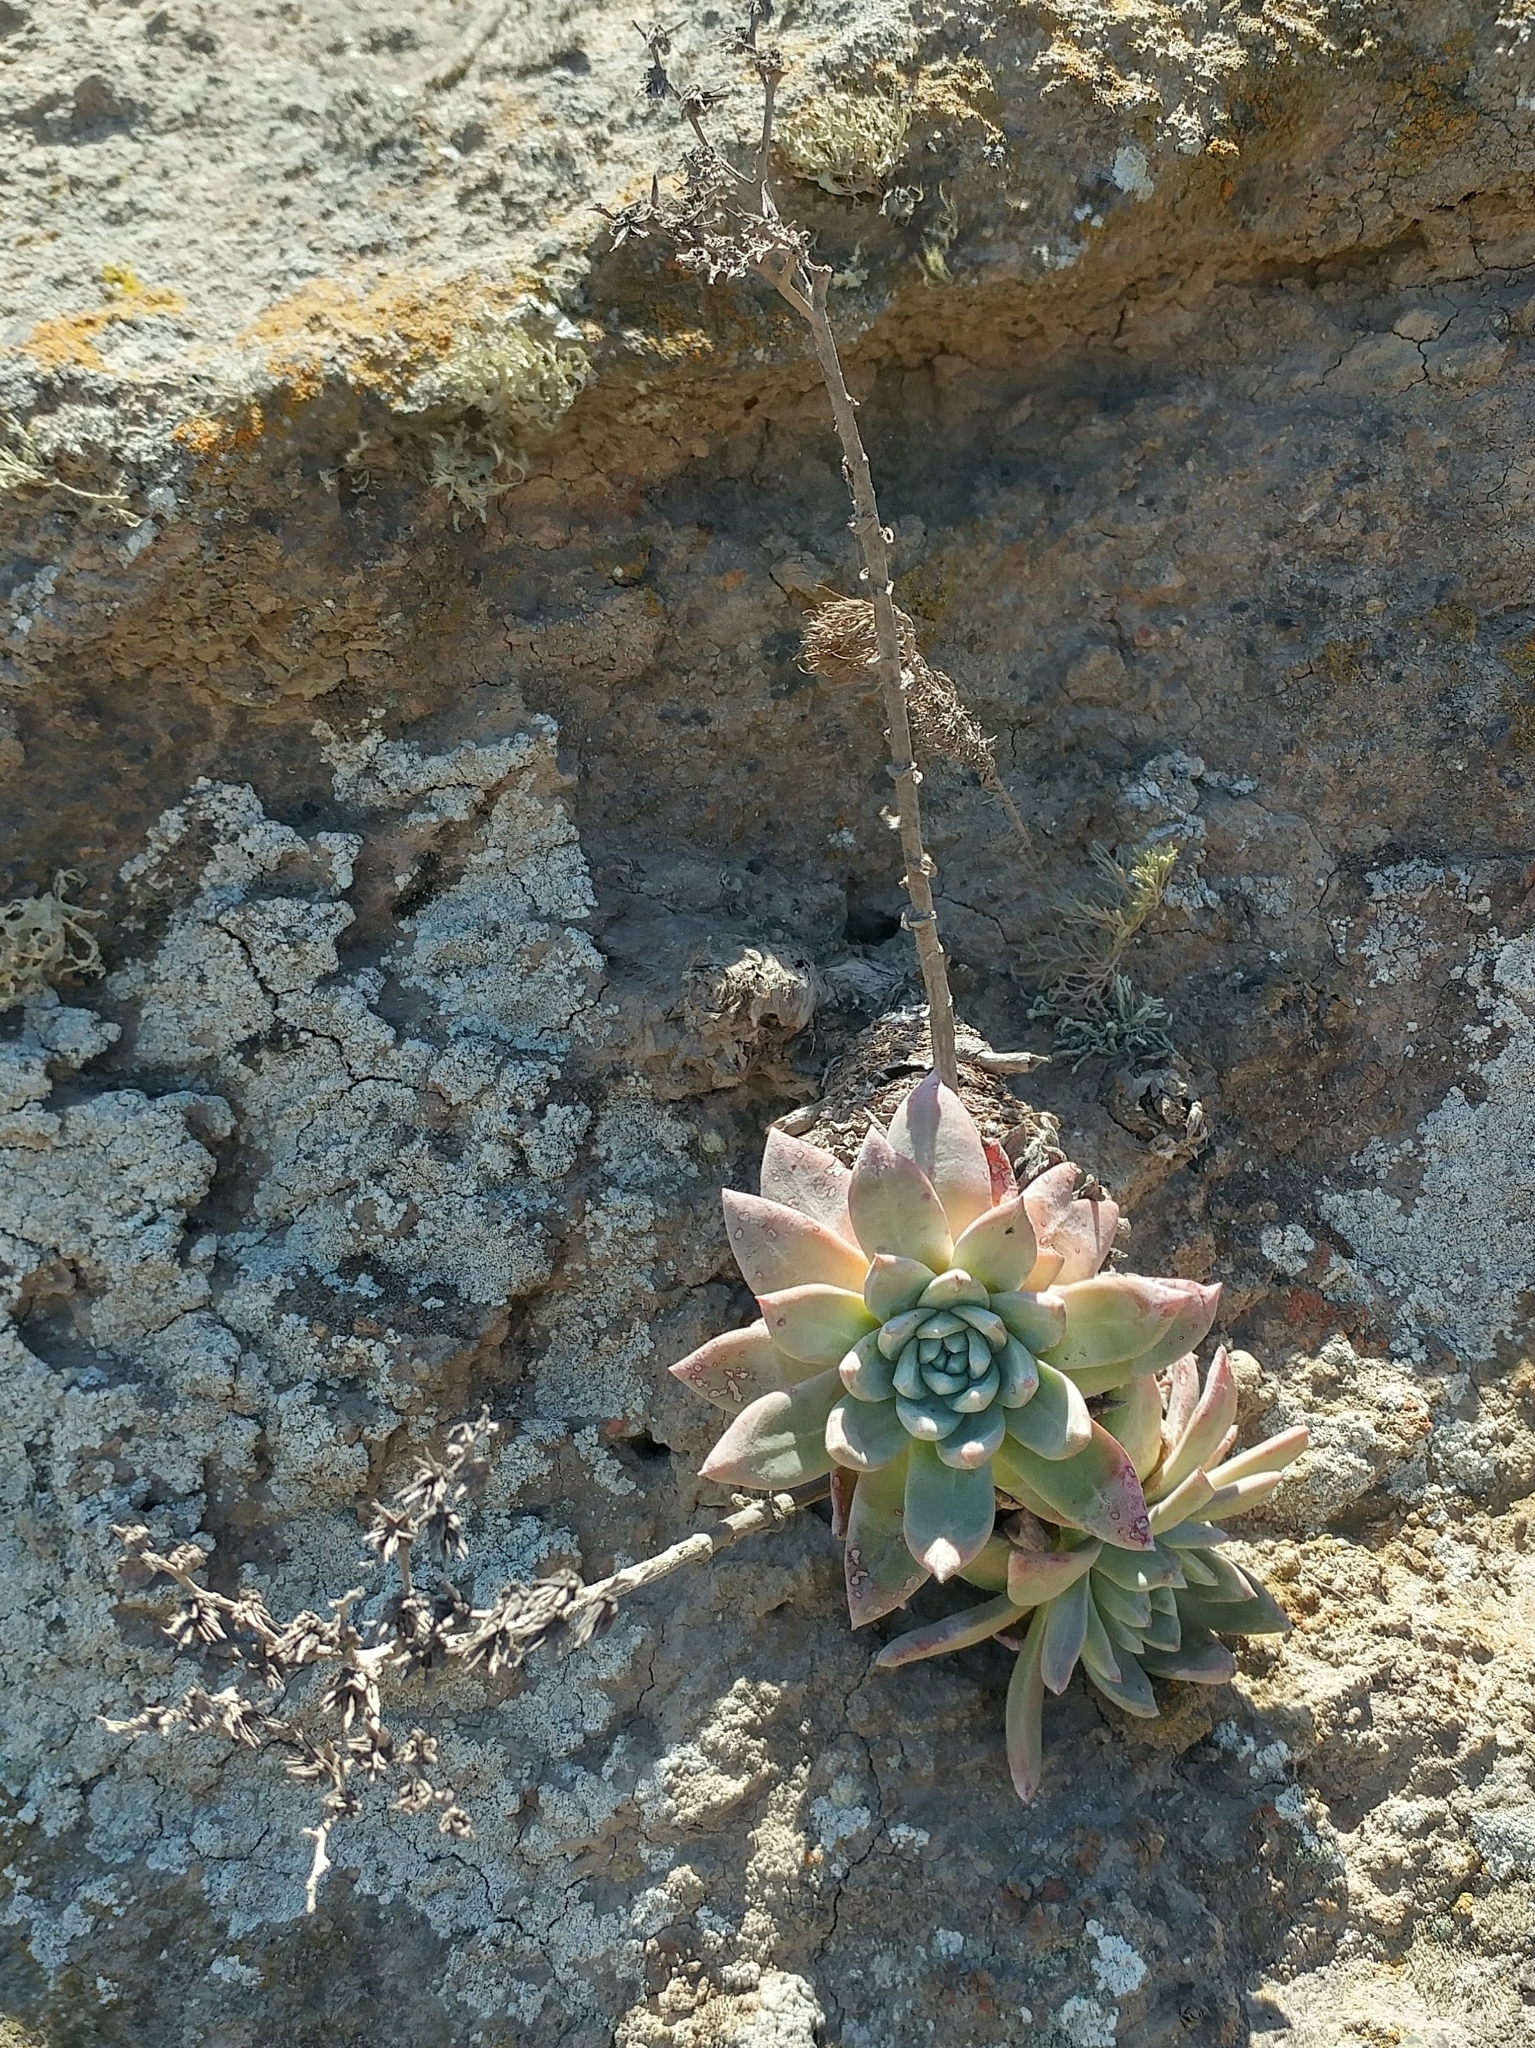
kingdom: Plantae
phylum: Tracheophyta
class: Magnoliopsida
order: Saxifragales
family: Crassulaceae
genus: Dudleya
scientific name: Dudleya greenei
